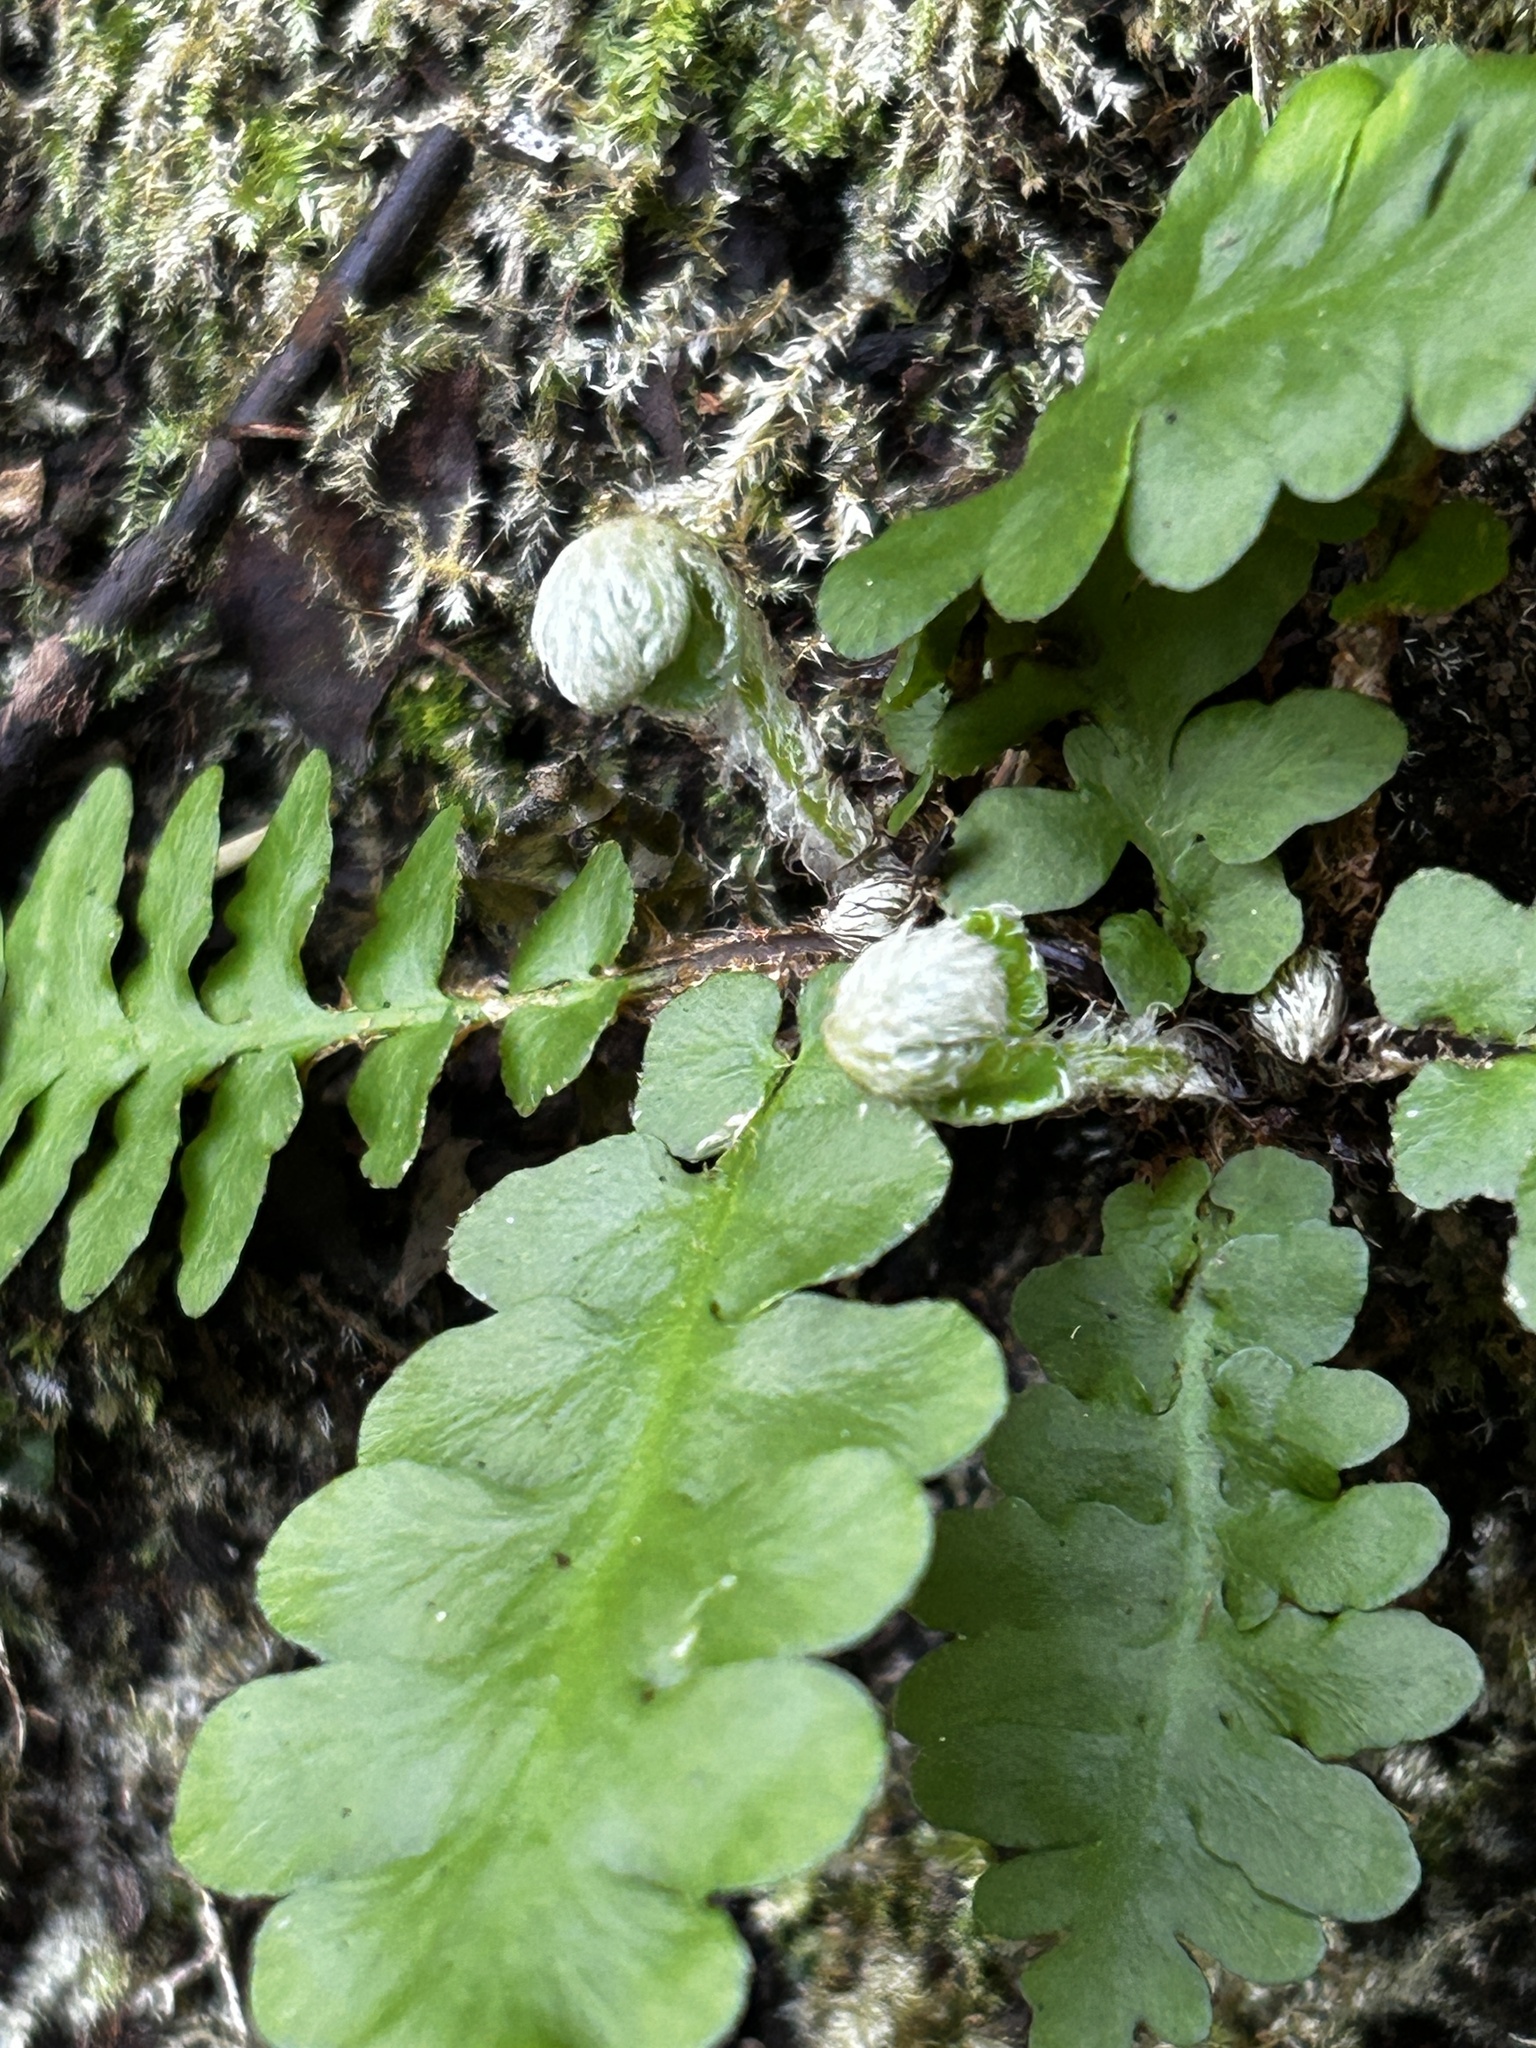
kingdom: Plantae
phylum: Tracheophyta
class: Polypodiopsida
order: Polypodiales
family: Aspleniaceae
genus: Asplenium
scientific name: Asplenium cordatum
